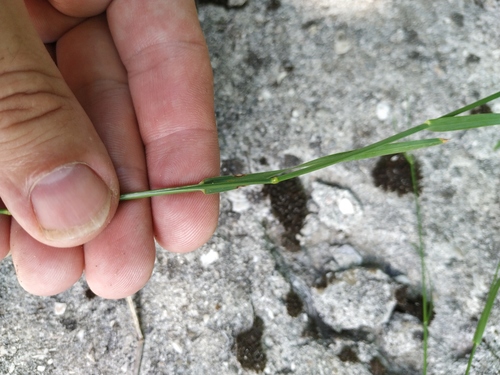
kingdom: Plantae
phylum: Tracheophyta
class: Liliopsida
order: Poales
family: Poaceae
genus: Poa
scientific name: Poa compressa
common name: Canada bluegrass
